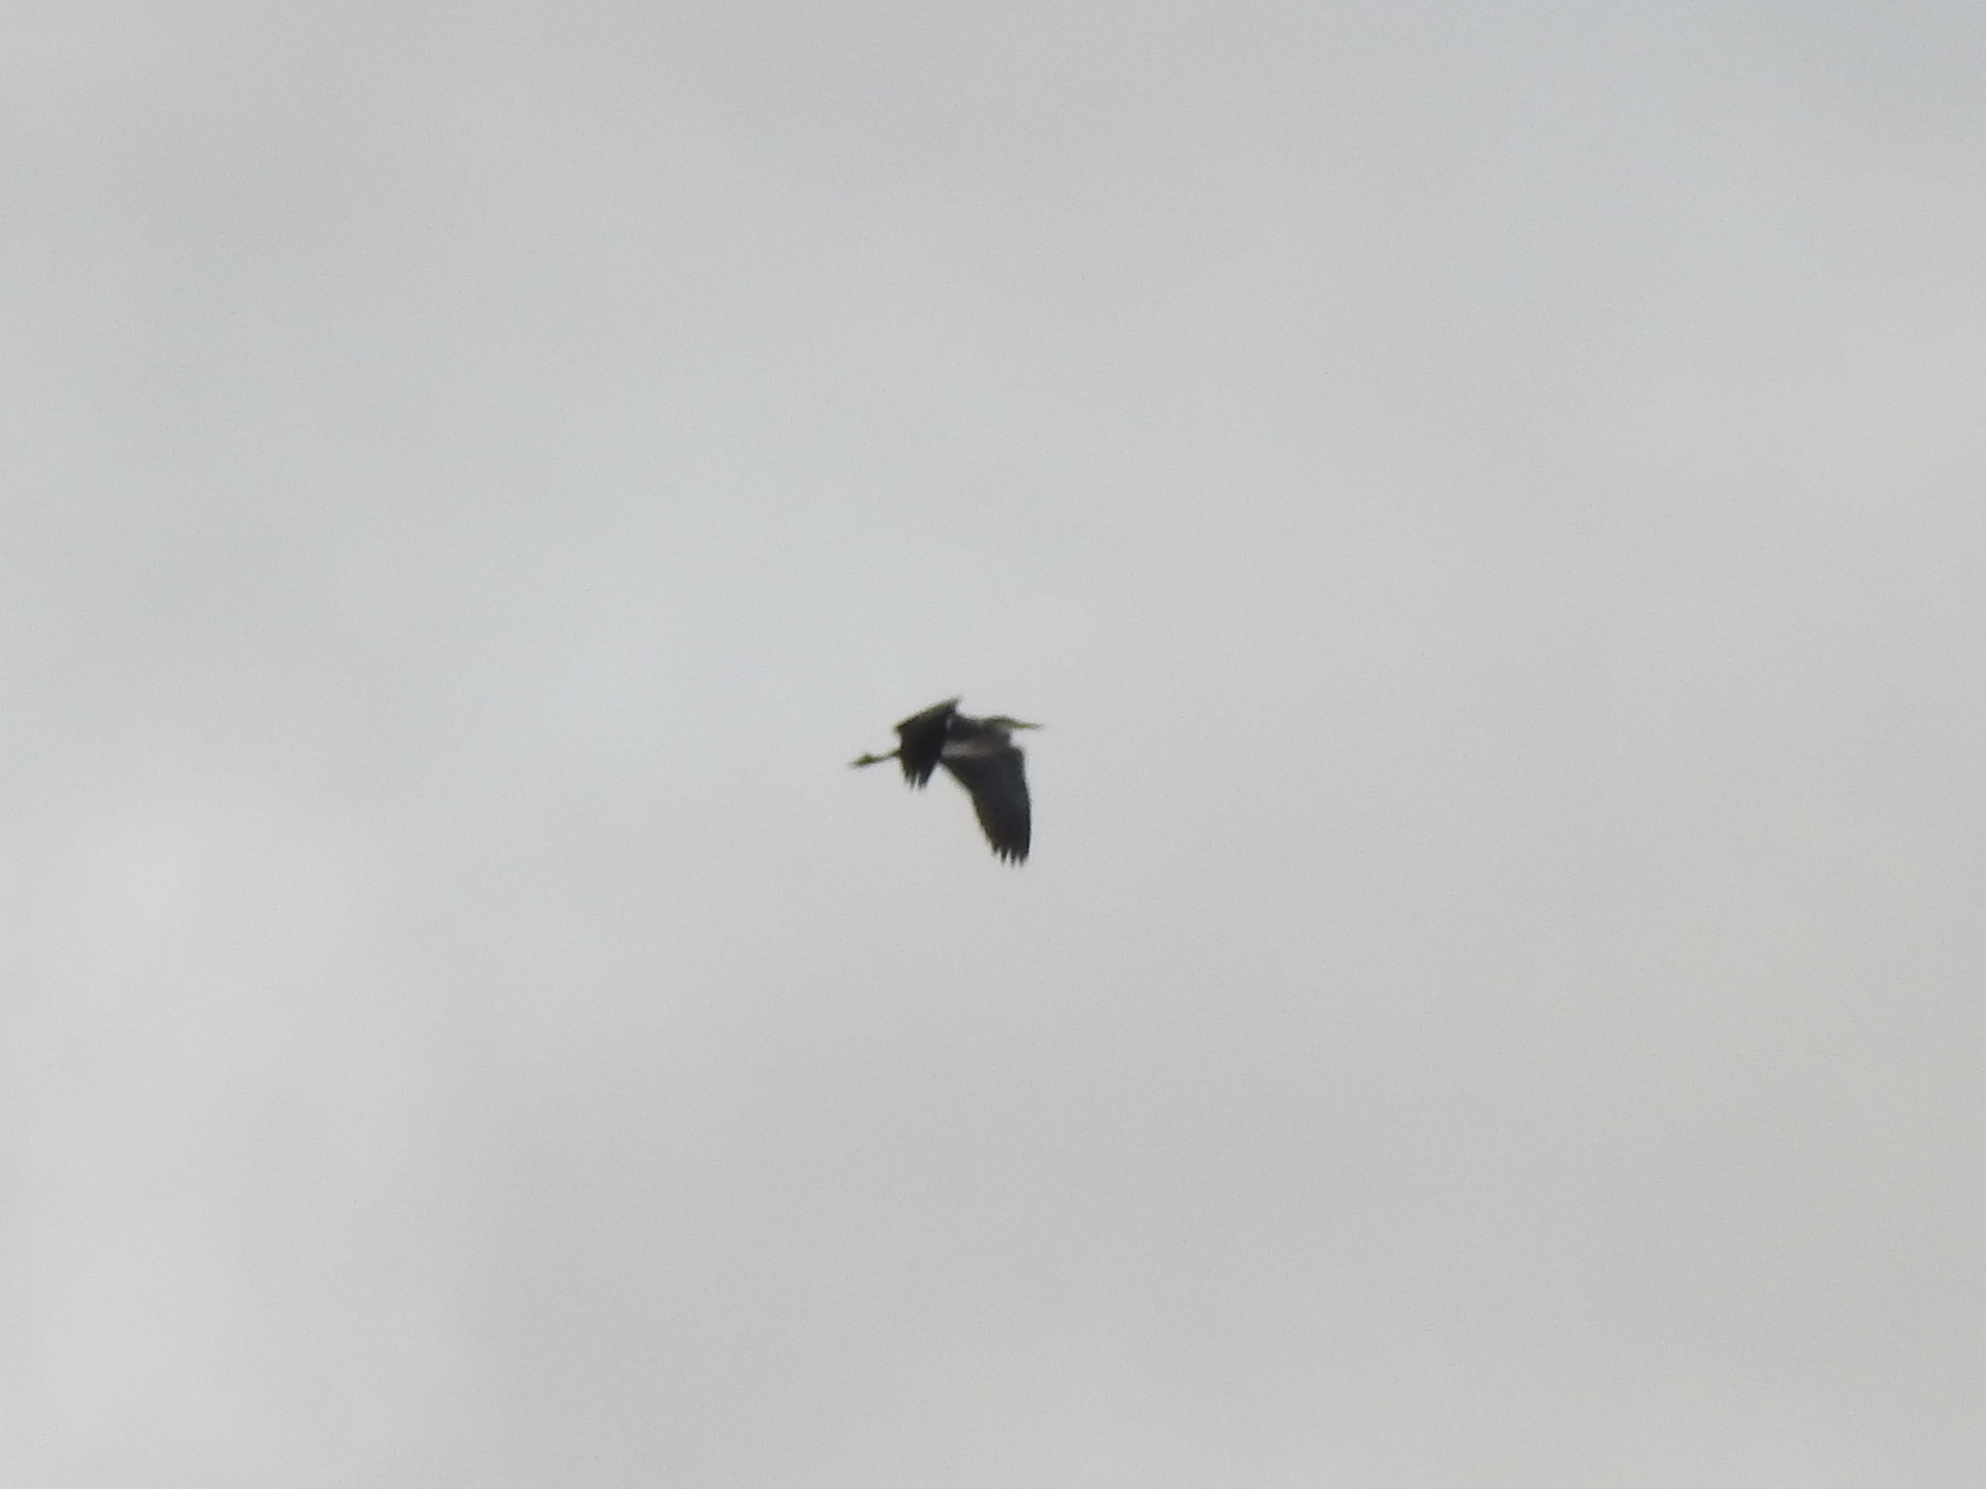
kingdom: Animalia
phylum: Chordata
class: Aves
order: Pelecaniformes
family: Ardeidae
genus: Ardea
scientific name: Ardea cinerea
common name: Grey heron
